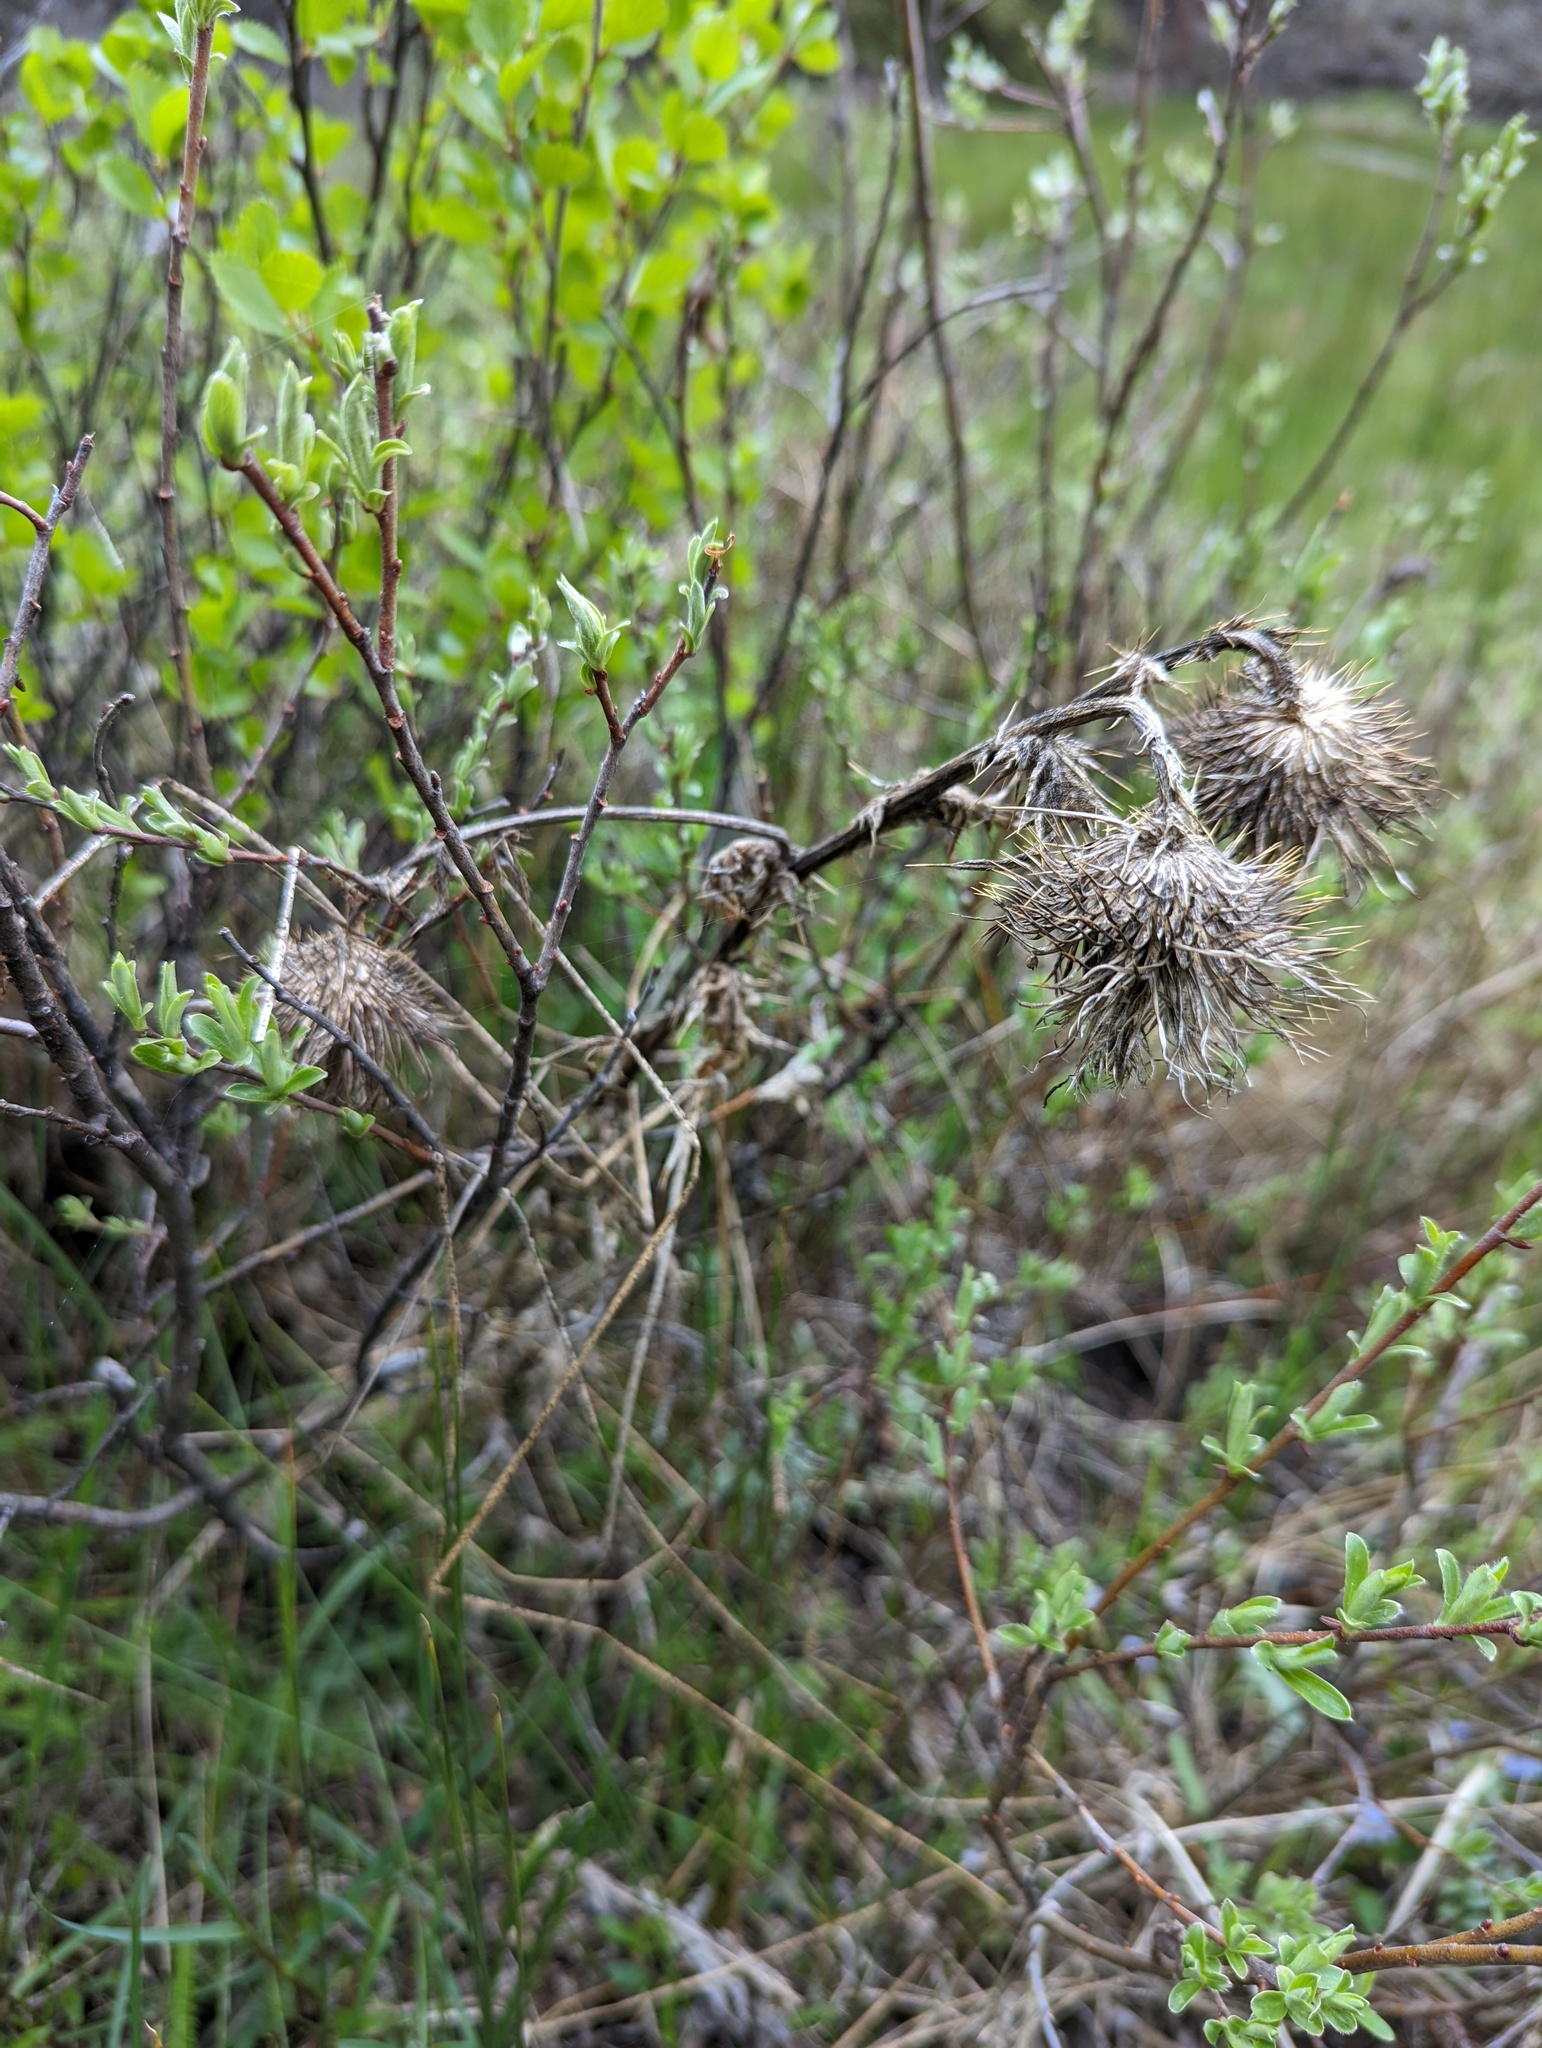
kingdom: Plantae
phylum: Tracheophyta
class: Magnoliopsida
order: Asterales
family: Asteraceae
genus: Cirsium
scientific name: Cirsium vulgare
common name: Bull thistle
